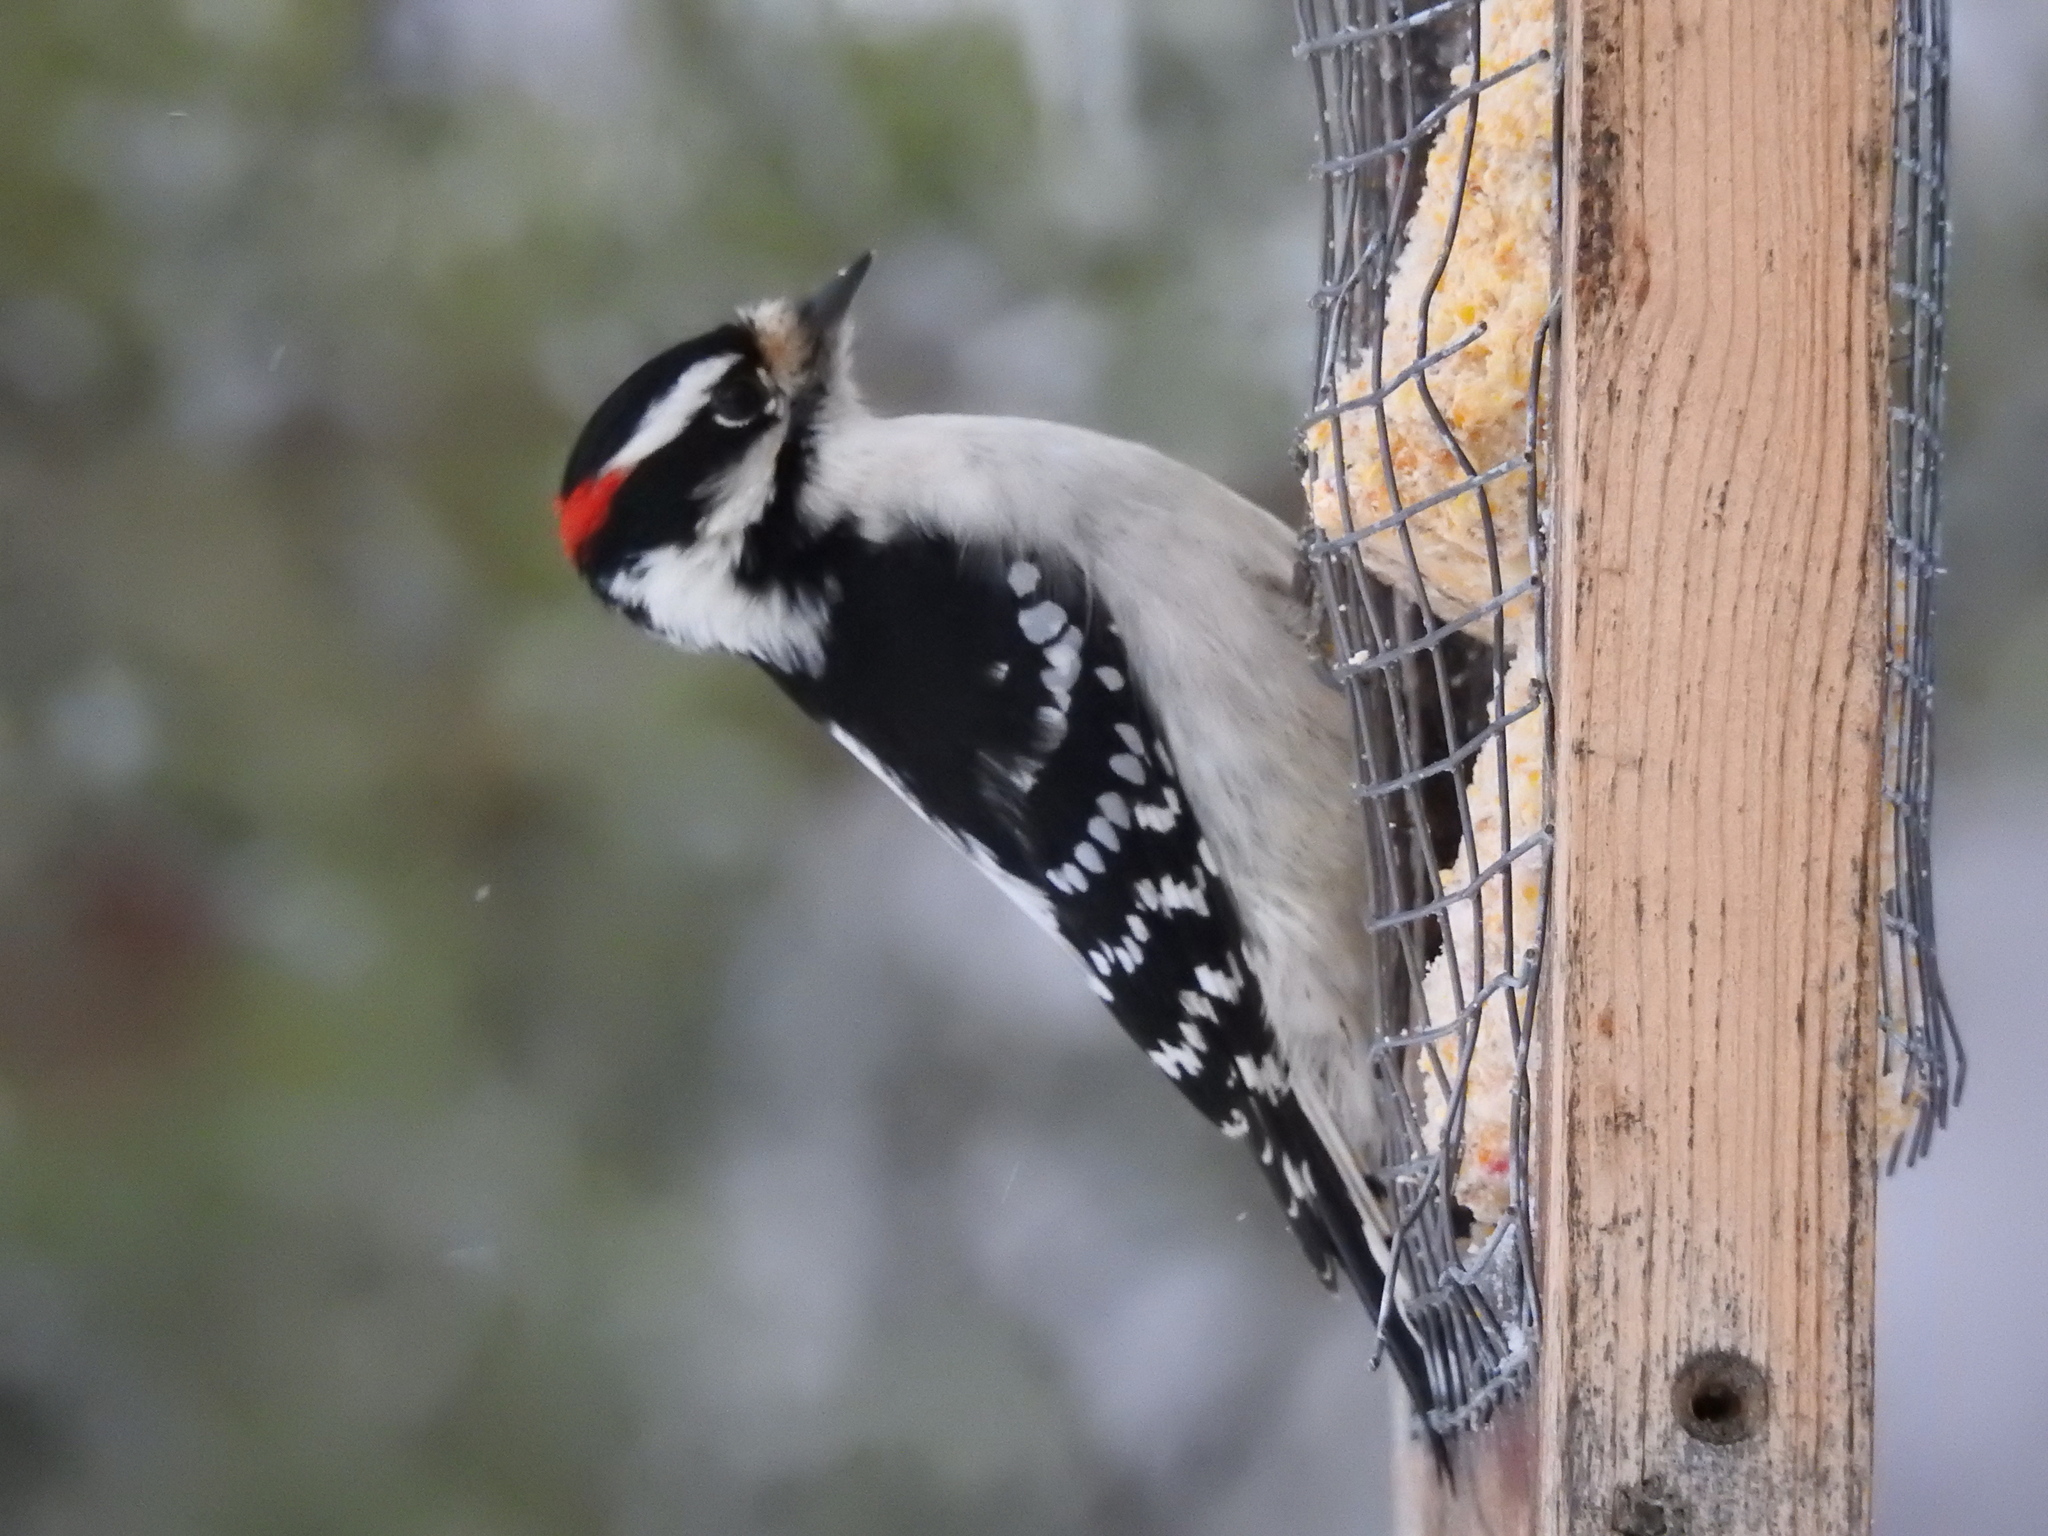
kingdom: Animalia
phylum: Chordata
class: Aves
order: Piciformes
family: Picidae
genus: Dryobates
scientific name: Dryobates pubescens
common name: Downy woodpecker
